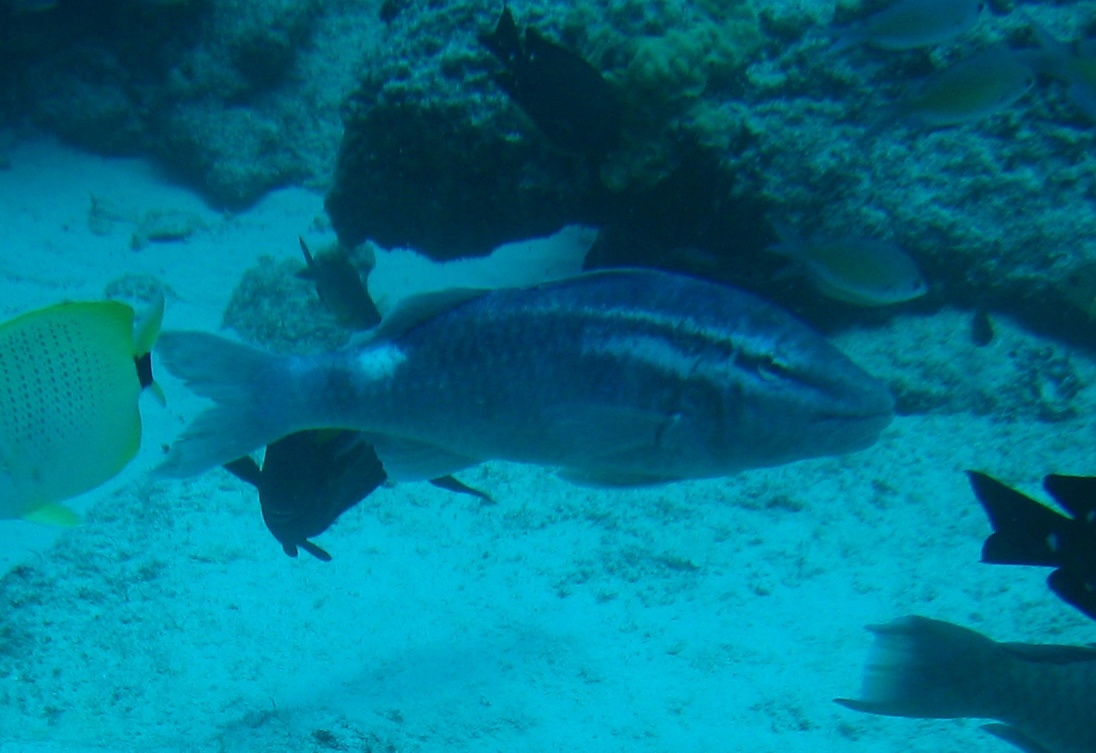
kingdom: Animalia
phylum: Chordata
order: Perciformes
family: Mullidae
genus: Parupeneus
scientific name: Parupeneus porphyreus
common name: Whitesaddle goatfish
